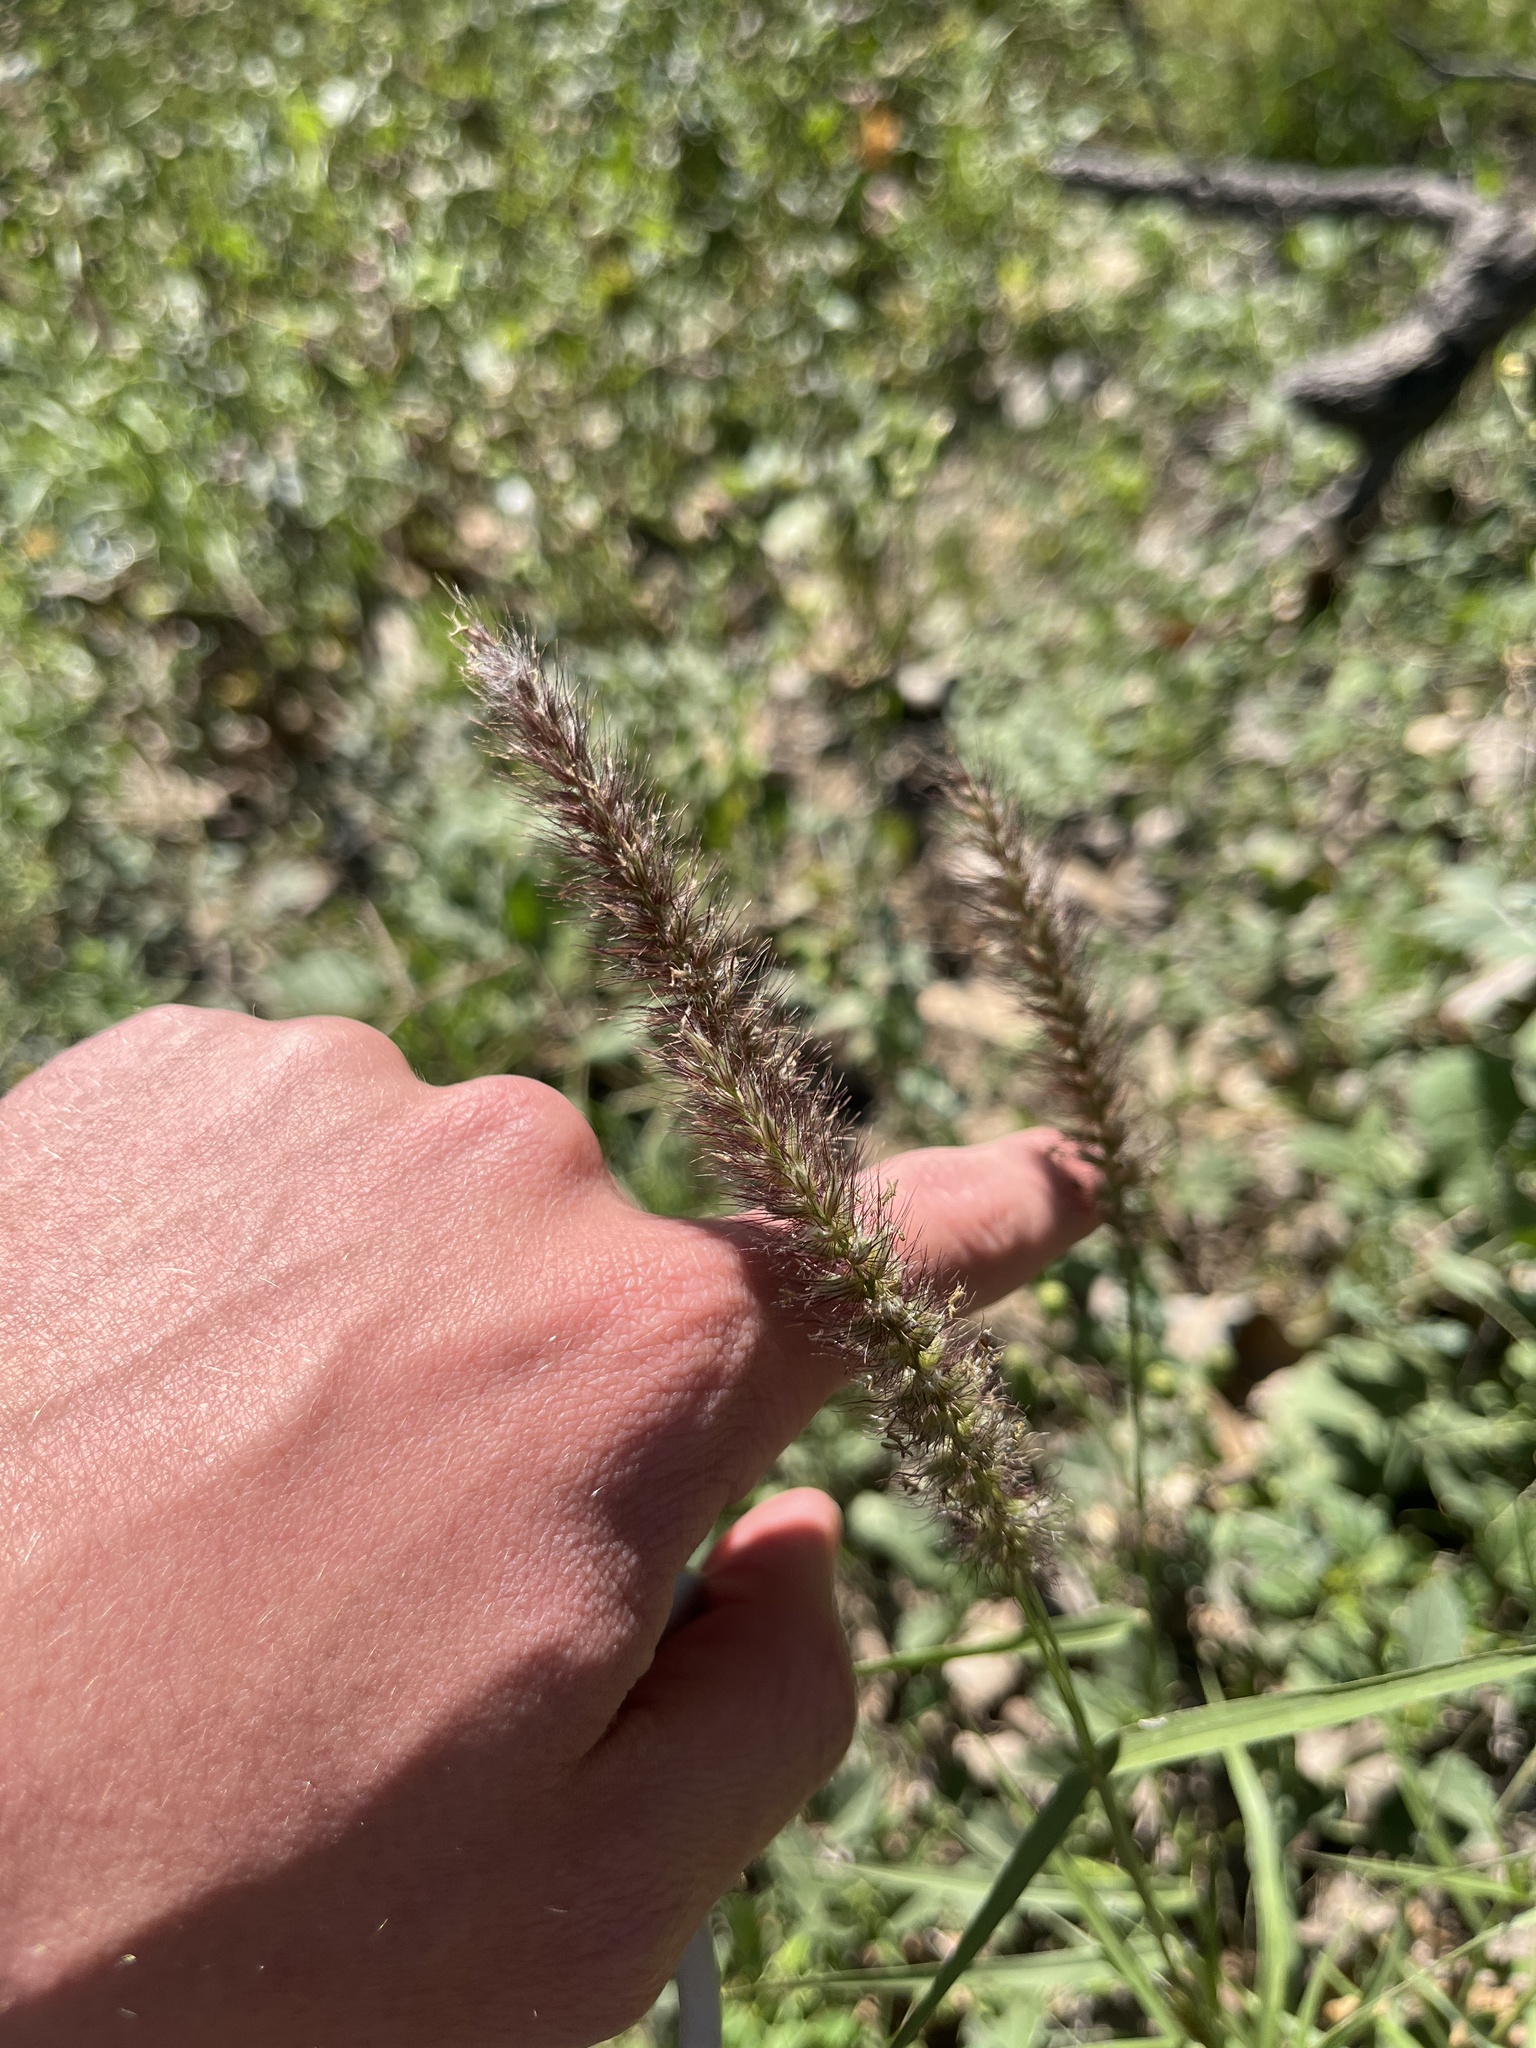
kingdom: Plantae
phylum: Tracheophyta
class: Liliopsida
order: Poales
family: Poaceae
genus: Cenchrus
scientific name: Cenchrus ciliaris
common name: Buffelgrass
